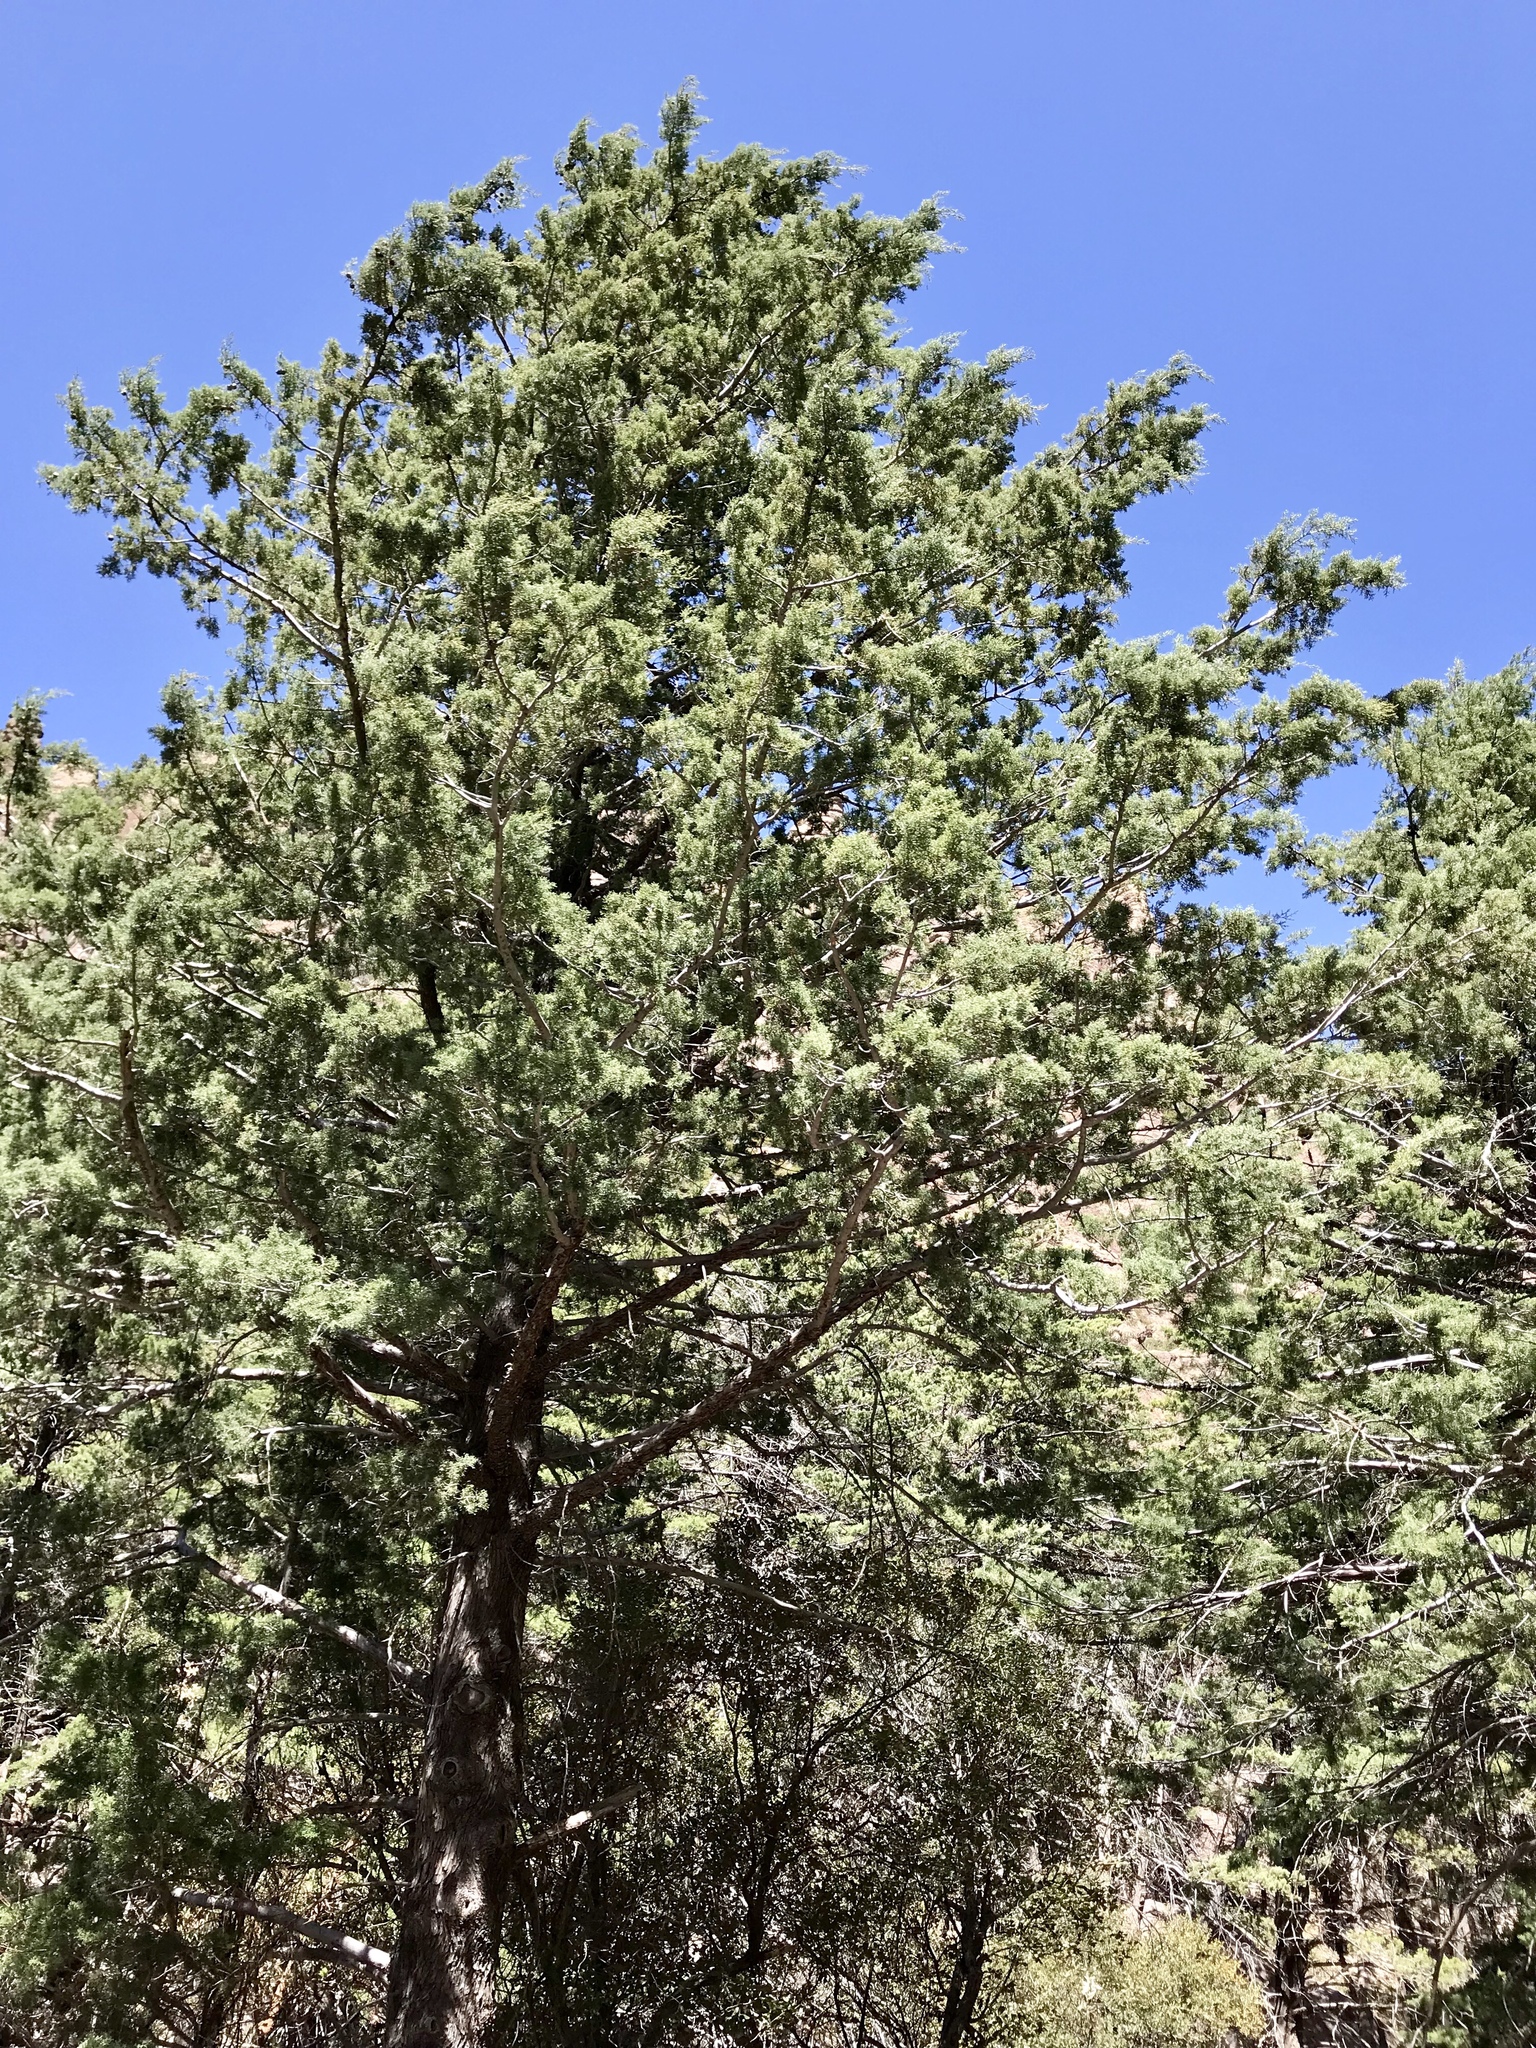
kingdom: Plantae
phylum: Tracheophyta
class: Pinopsida
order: Pinales
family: Cupressaceae
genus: Cupressus
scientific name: Cupressus arizonica
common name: Arizona cypress
